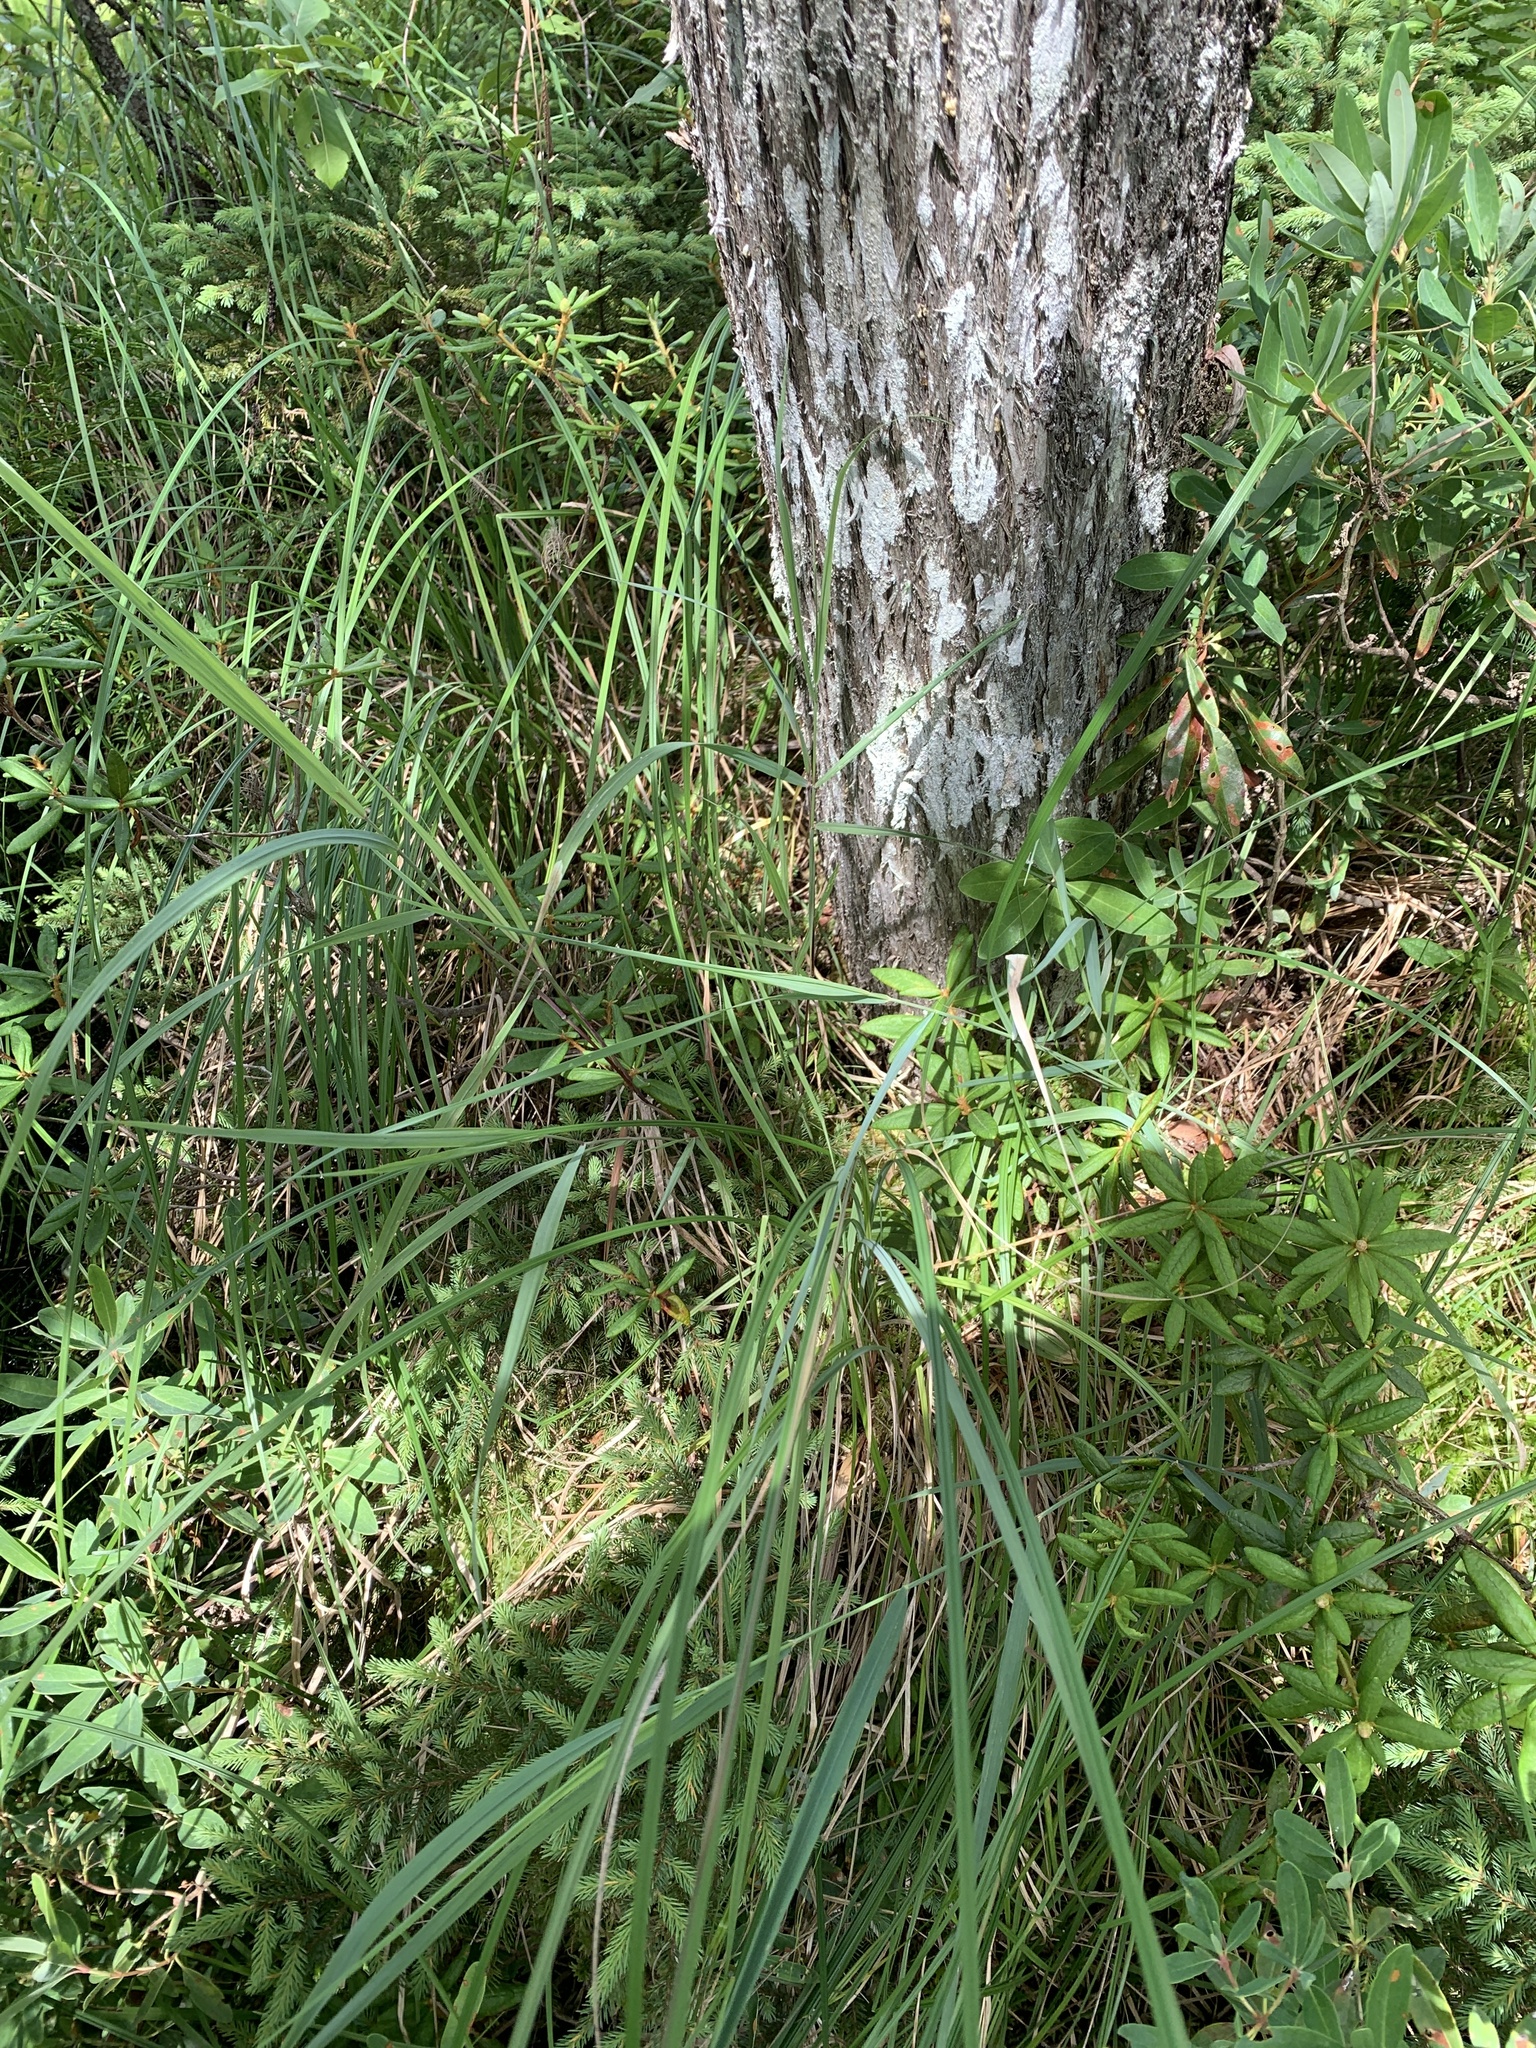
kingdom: Plantae
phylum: Tracheophyta
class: Liliopsida
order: Poales
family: Poaceae
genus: Calamagrostis
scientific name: Calamagrostis canadensis
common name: Canada bluejoint
